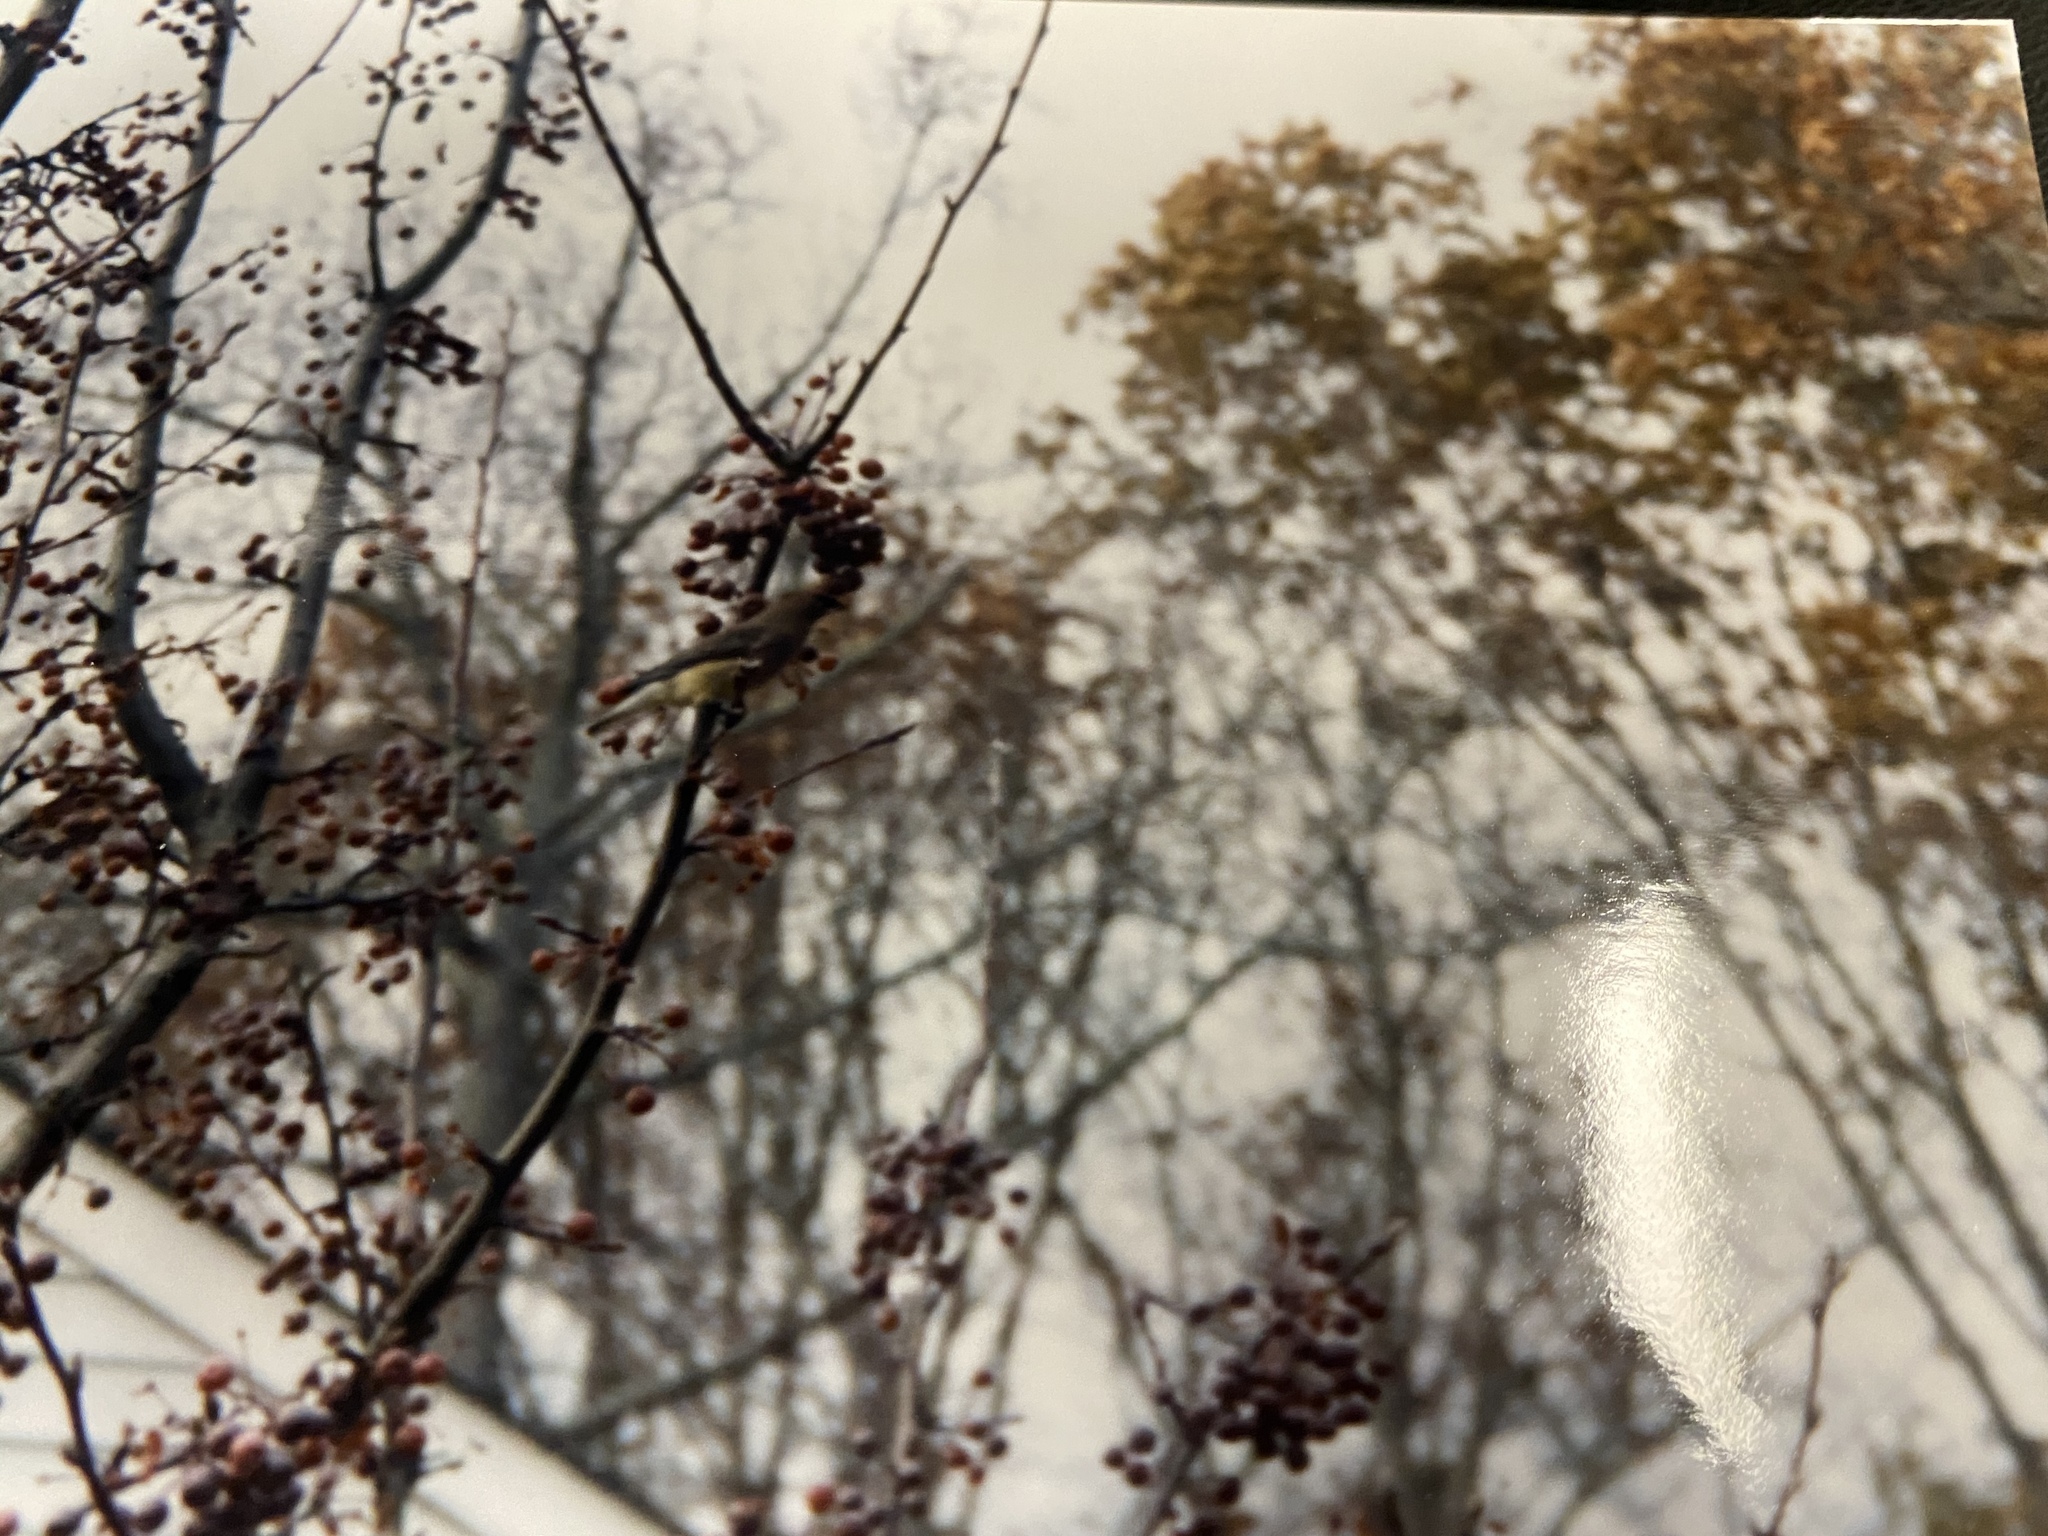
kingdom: Animalia
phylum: Chordata
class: Aves
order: Passeriformes
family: Bombycillidae
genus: Bombycilla
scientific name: Bombycilla cedrorum
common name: Cedar waxwing
